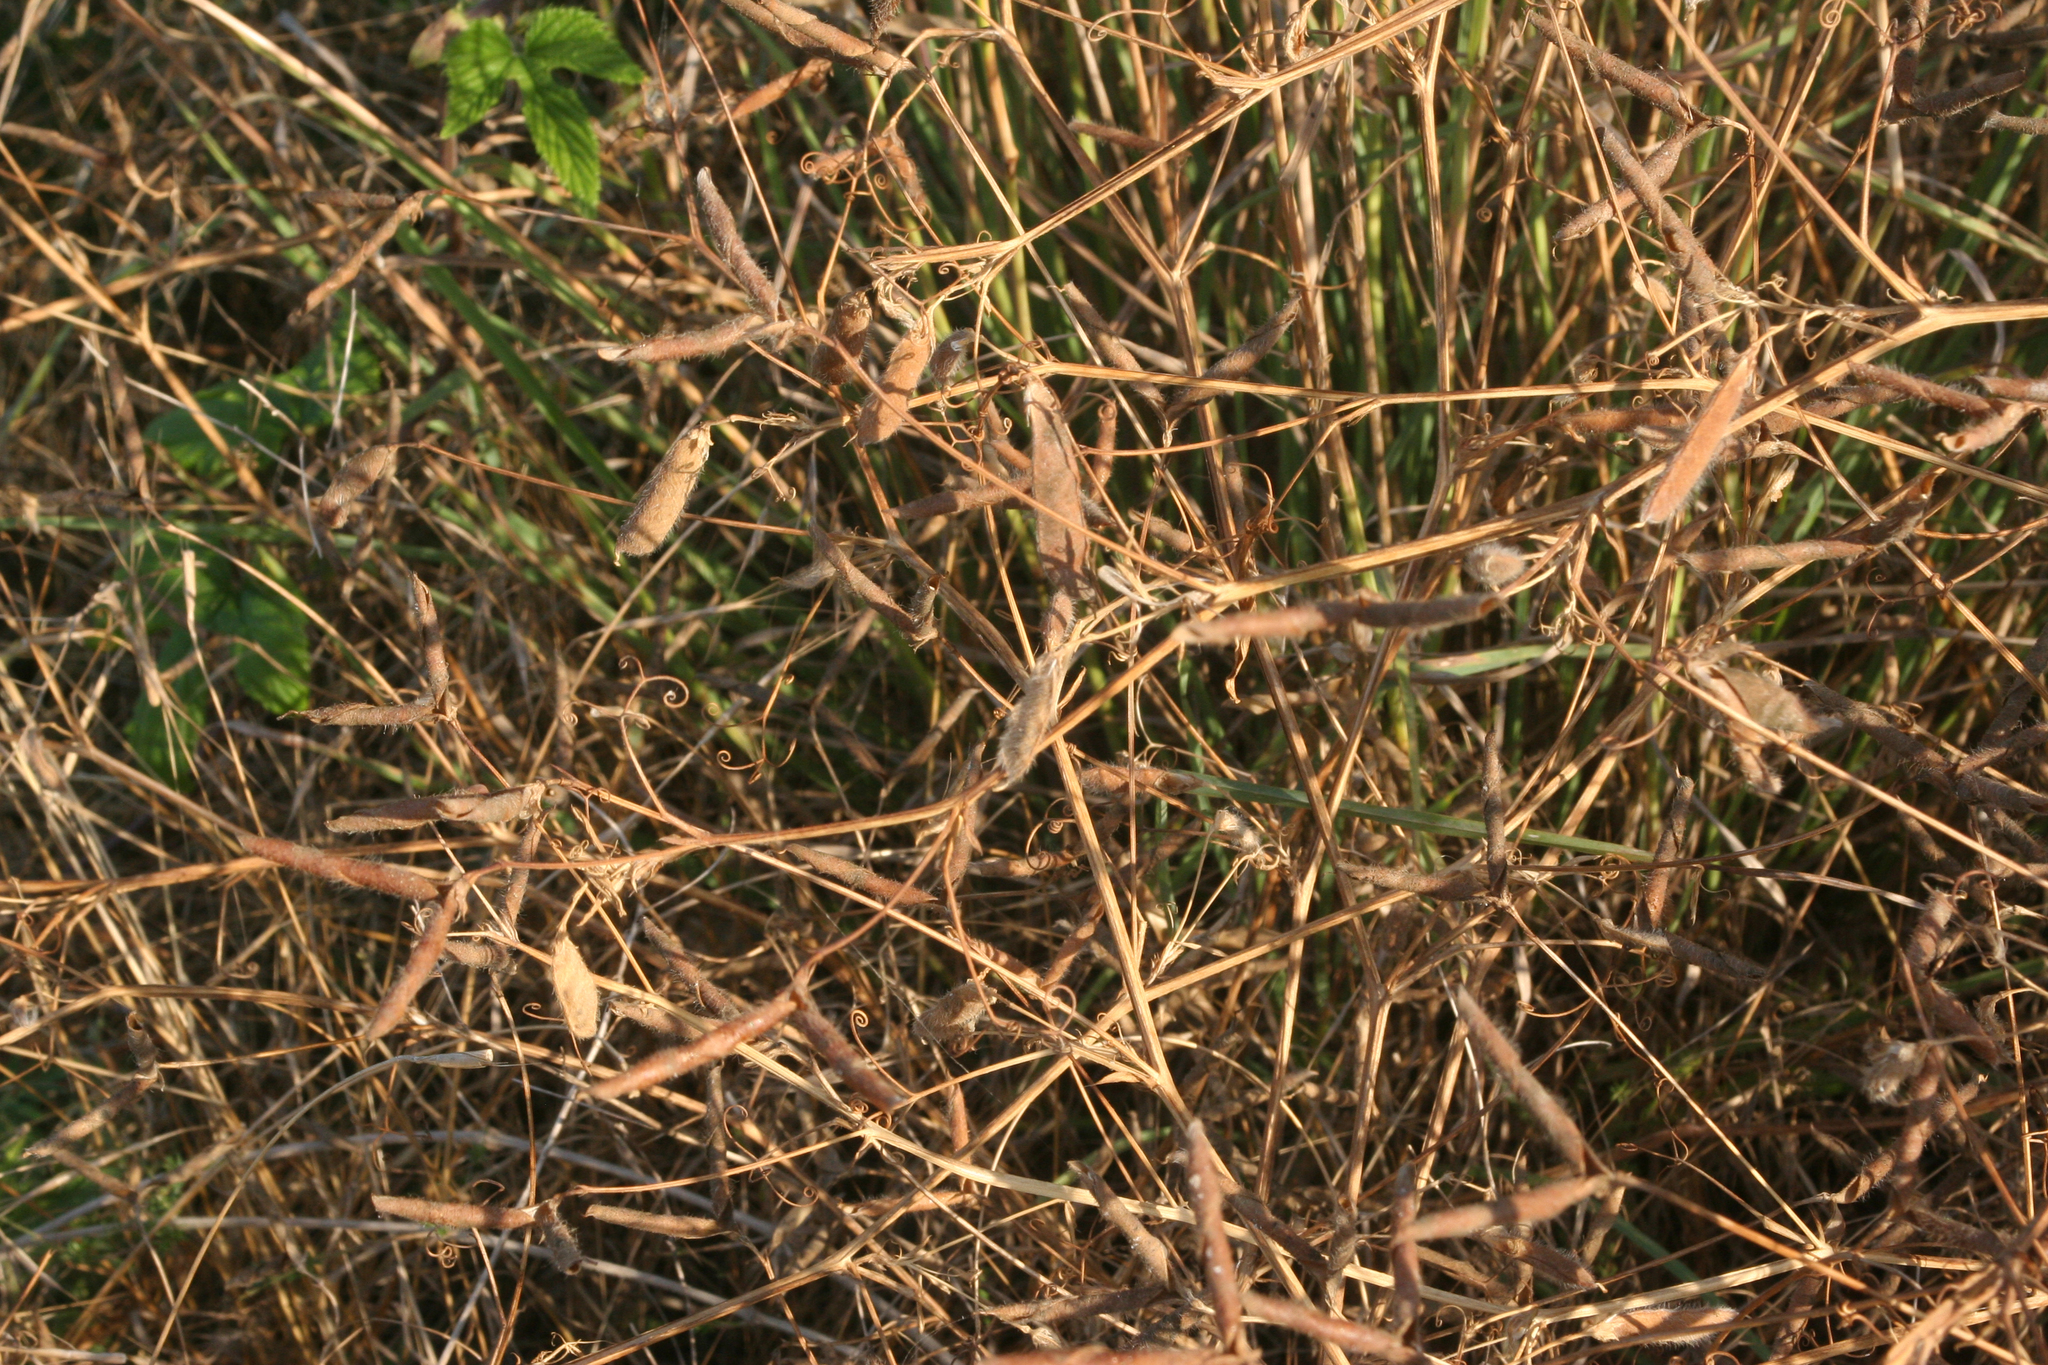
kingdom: Plantae
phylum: Tracheophyta
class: Magnoliopsida
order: Fabales
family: Fabaceae
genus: Lathyrus
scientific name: Lathyrus hirsutus
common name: Hairy vetchling
